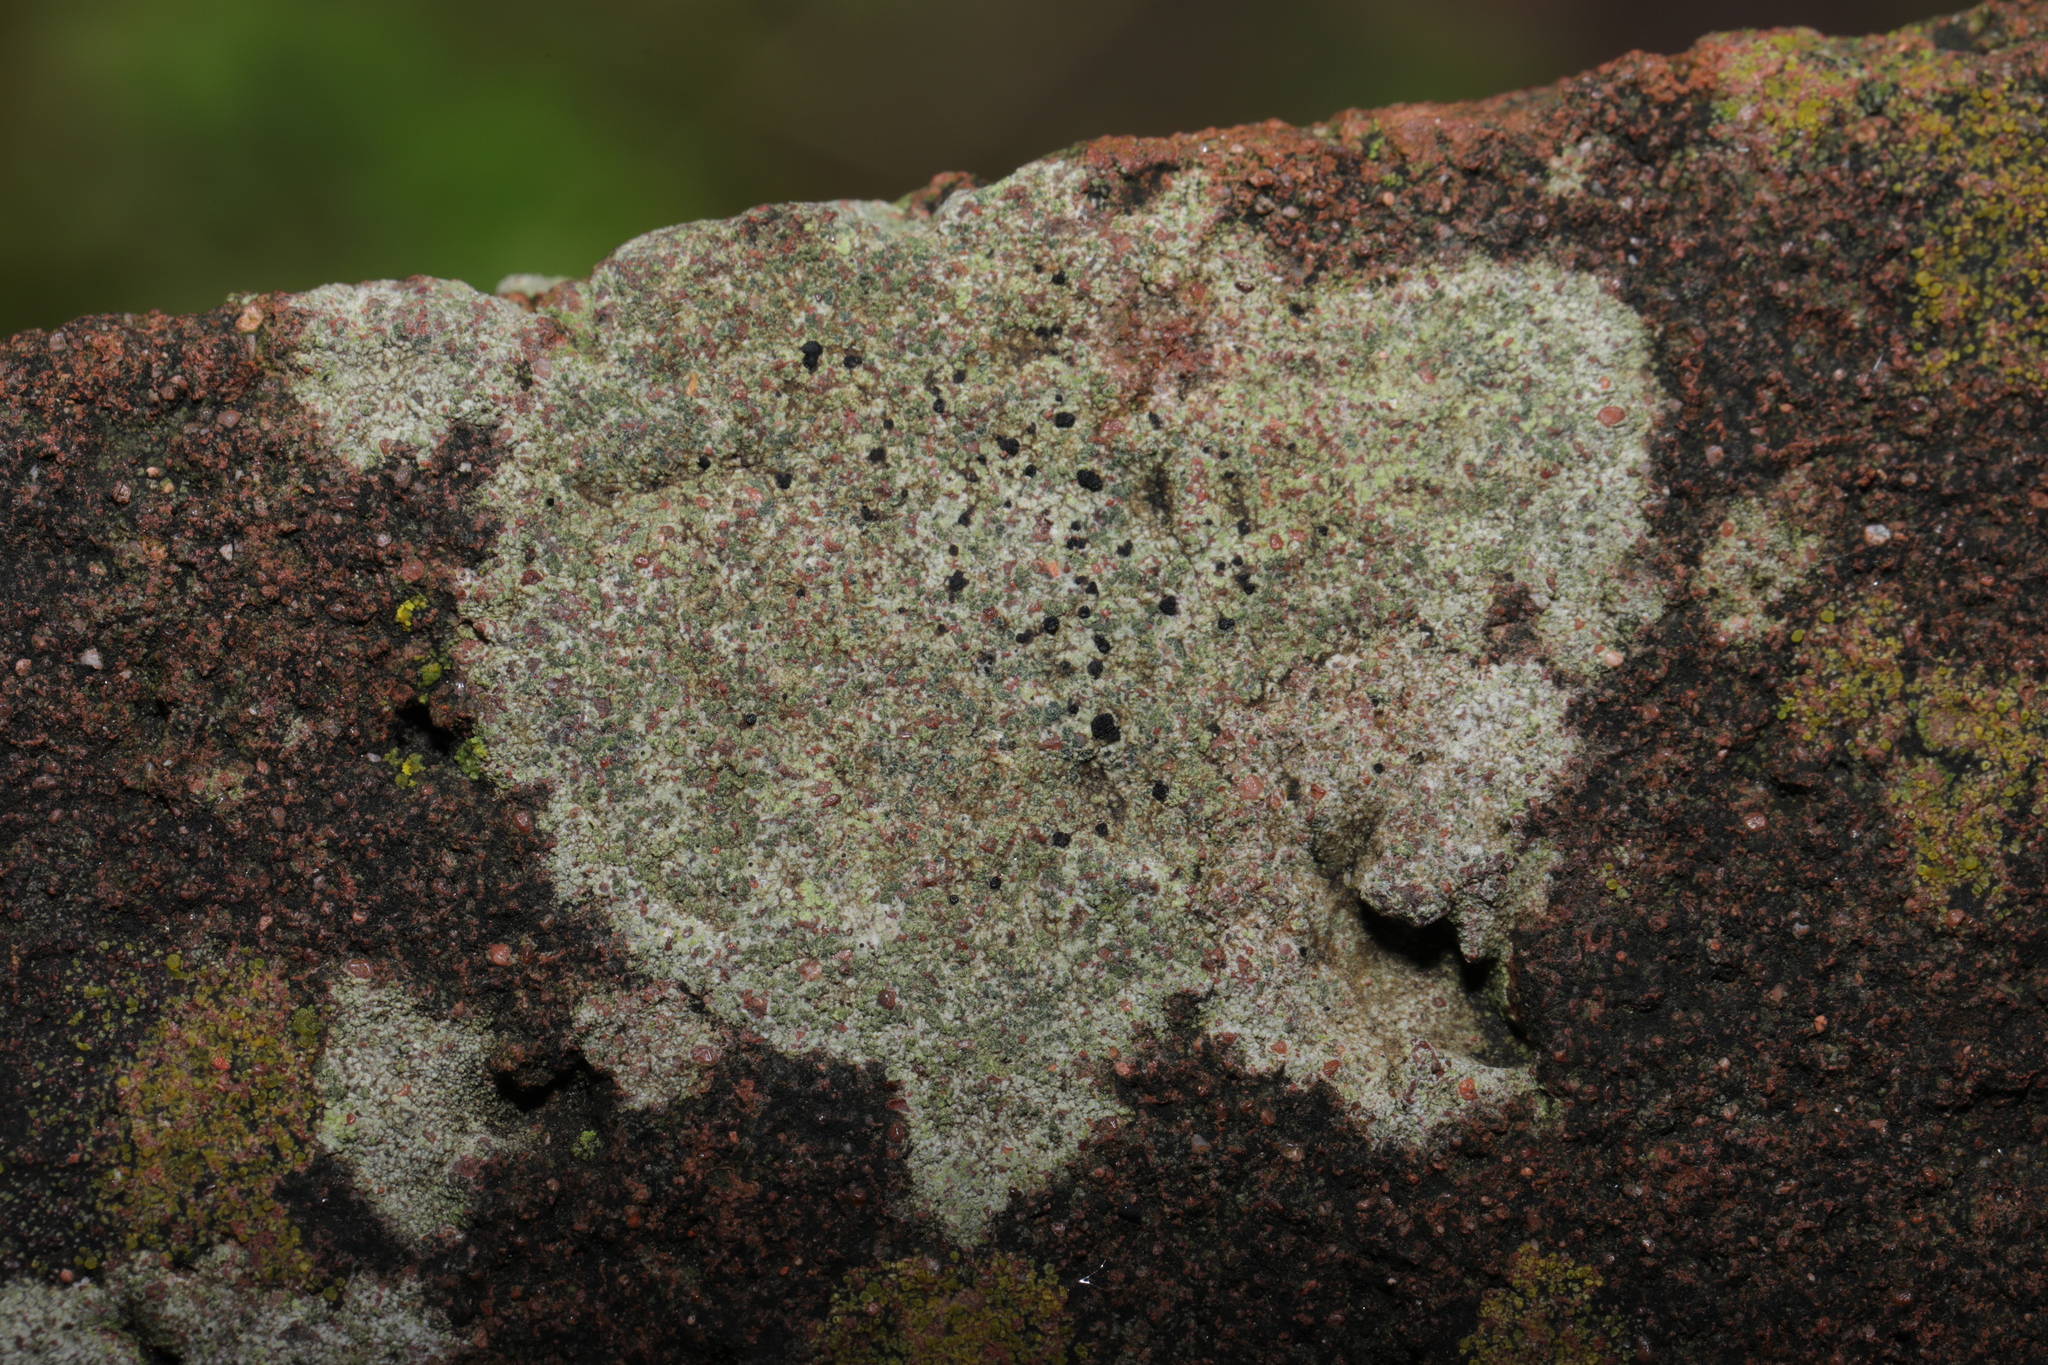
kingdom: Fungi
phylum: Ascomycota
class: Lecanoromycetes
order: Lecanorales
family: Lecanoraceae
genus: Lecidella
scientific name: Lecidella scabra
